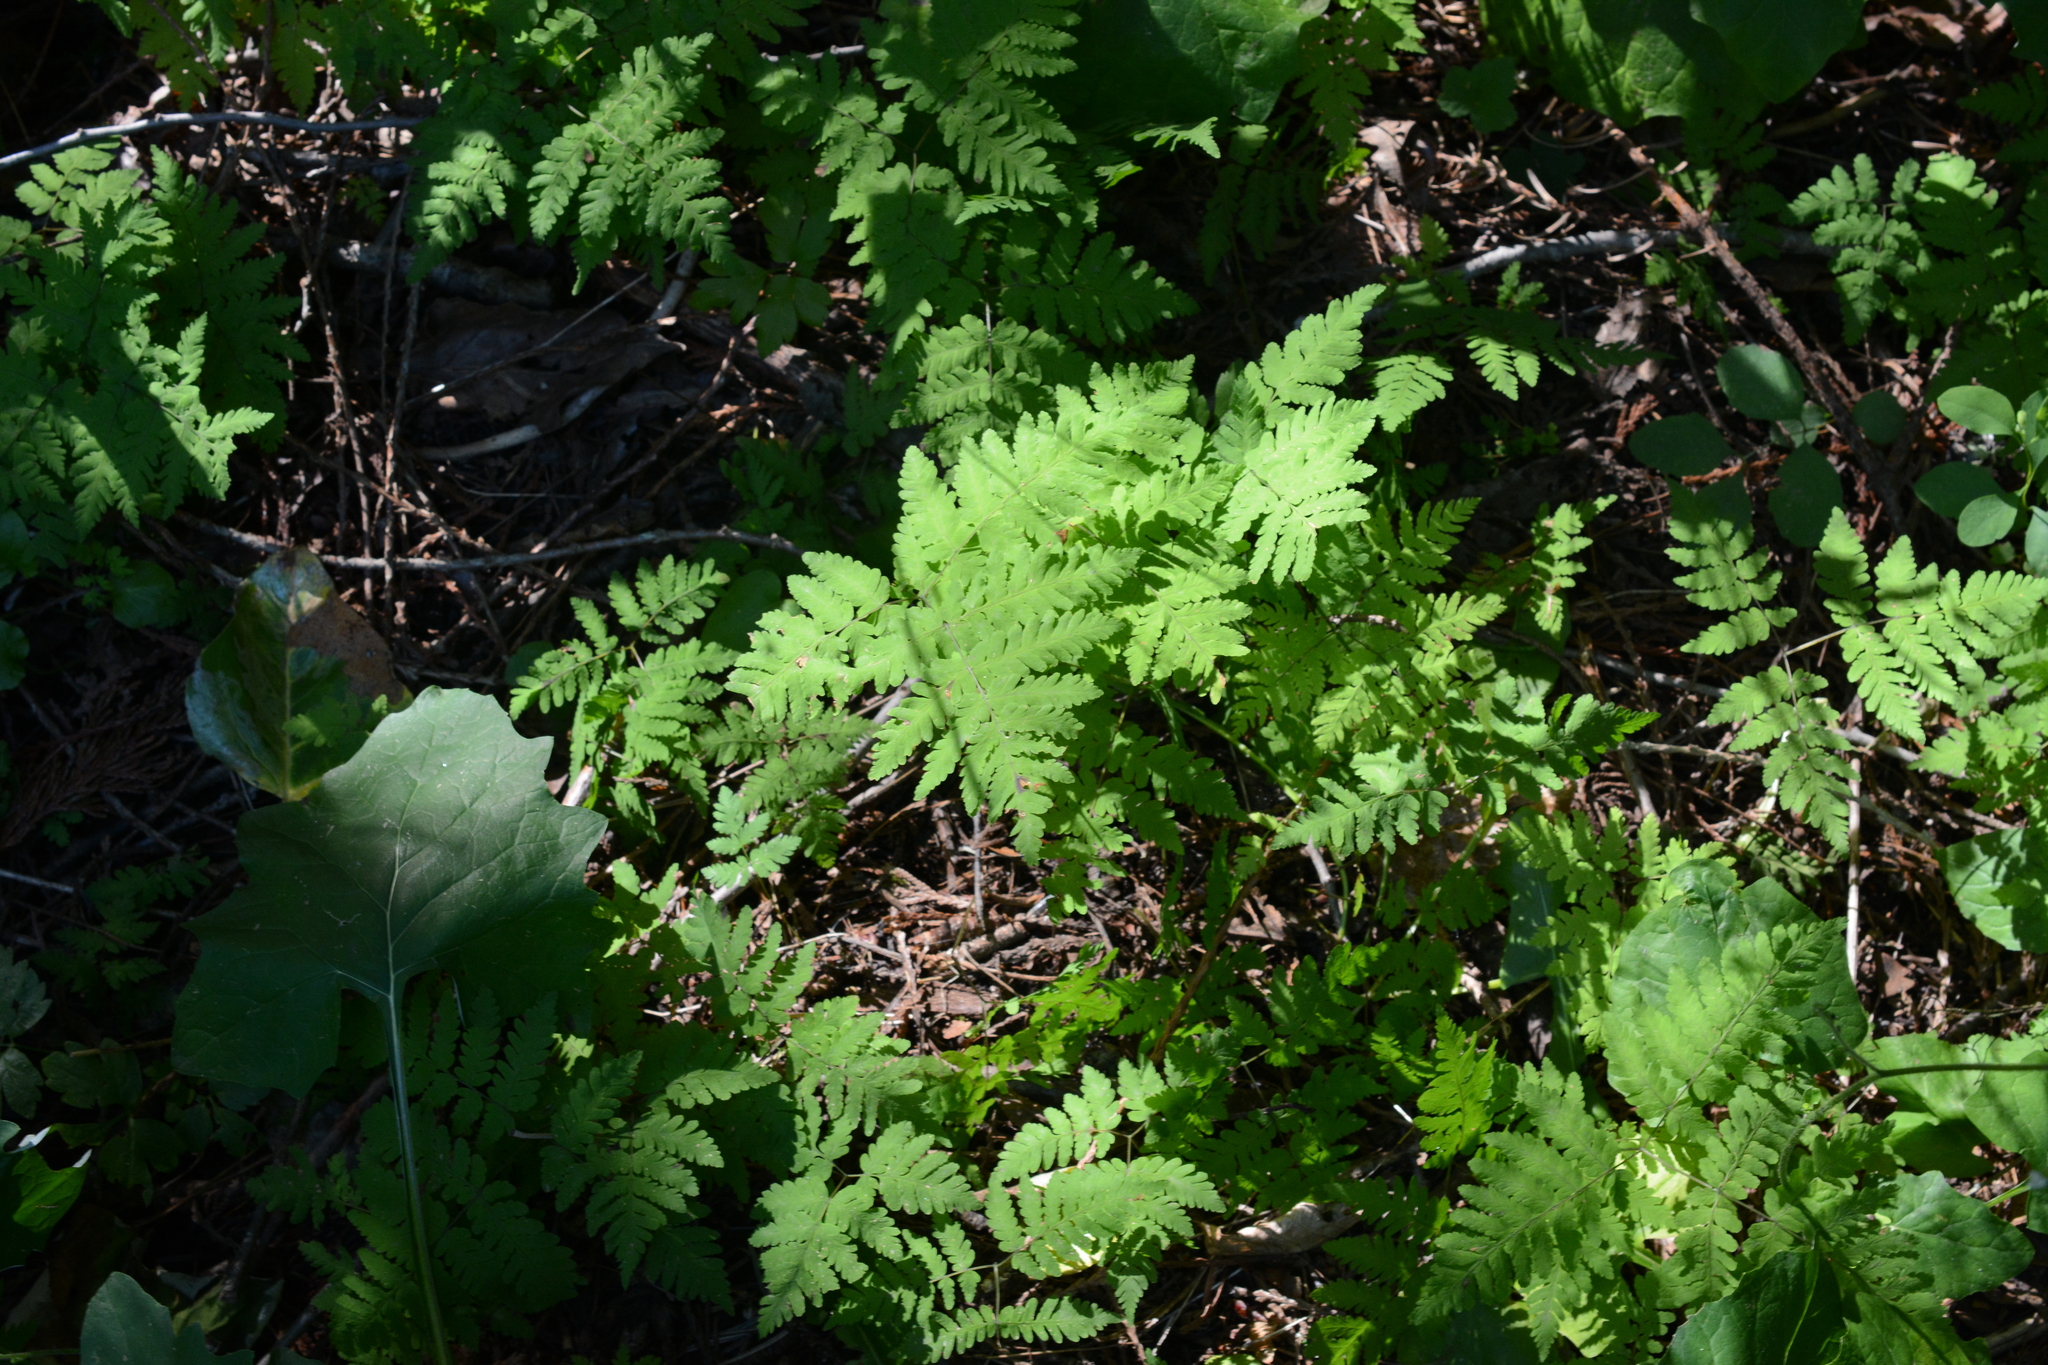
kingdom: Plantae
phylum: Tracheophyta
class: Polypodiopsida
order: Polypodiales
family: Cystopteridaceae
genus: Gymnocarpium
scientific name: Gymnocarpium dryopteris
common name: Oak fern
